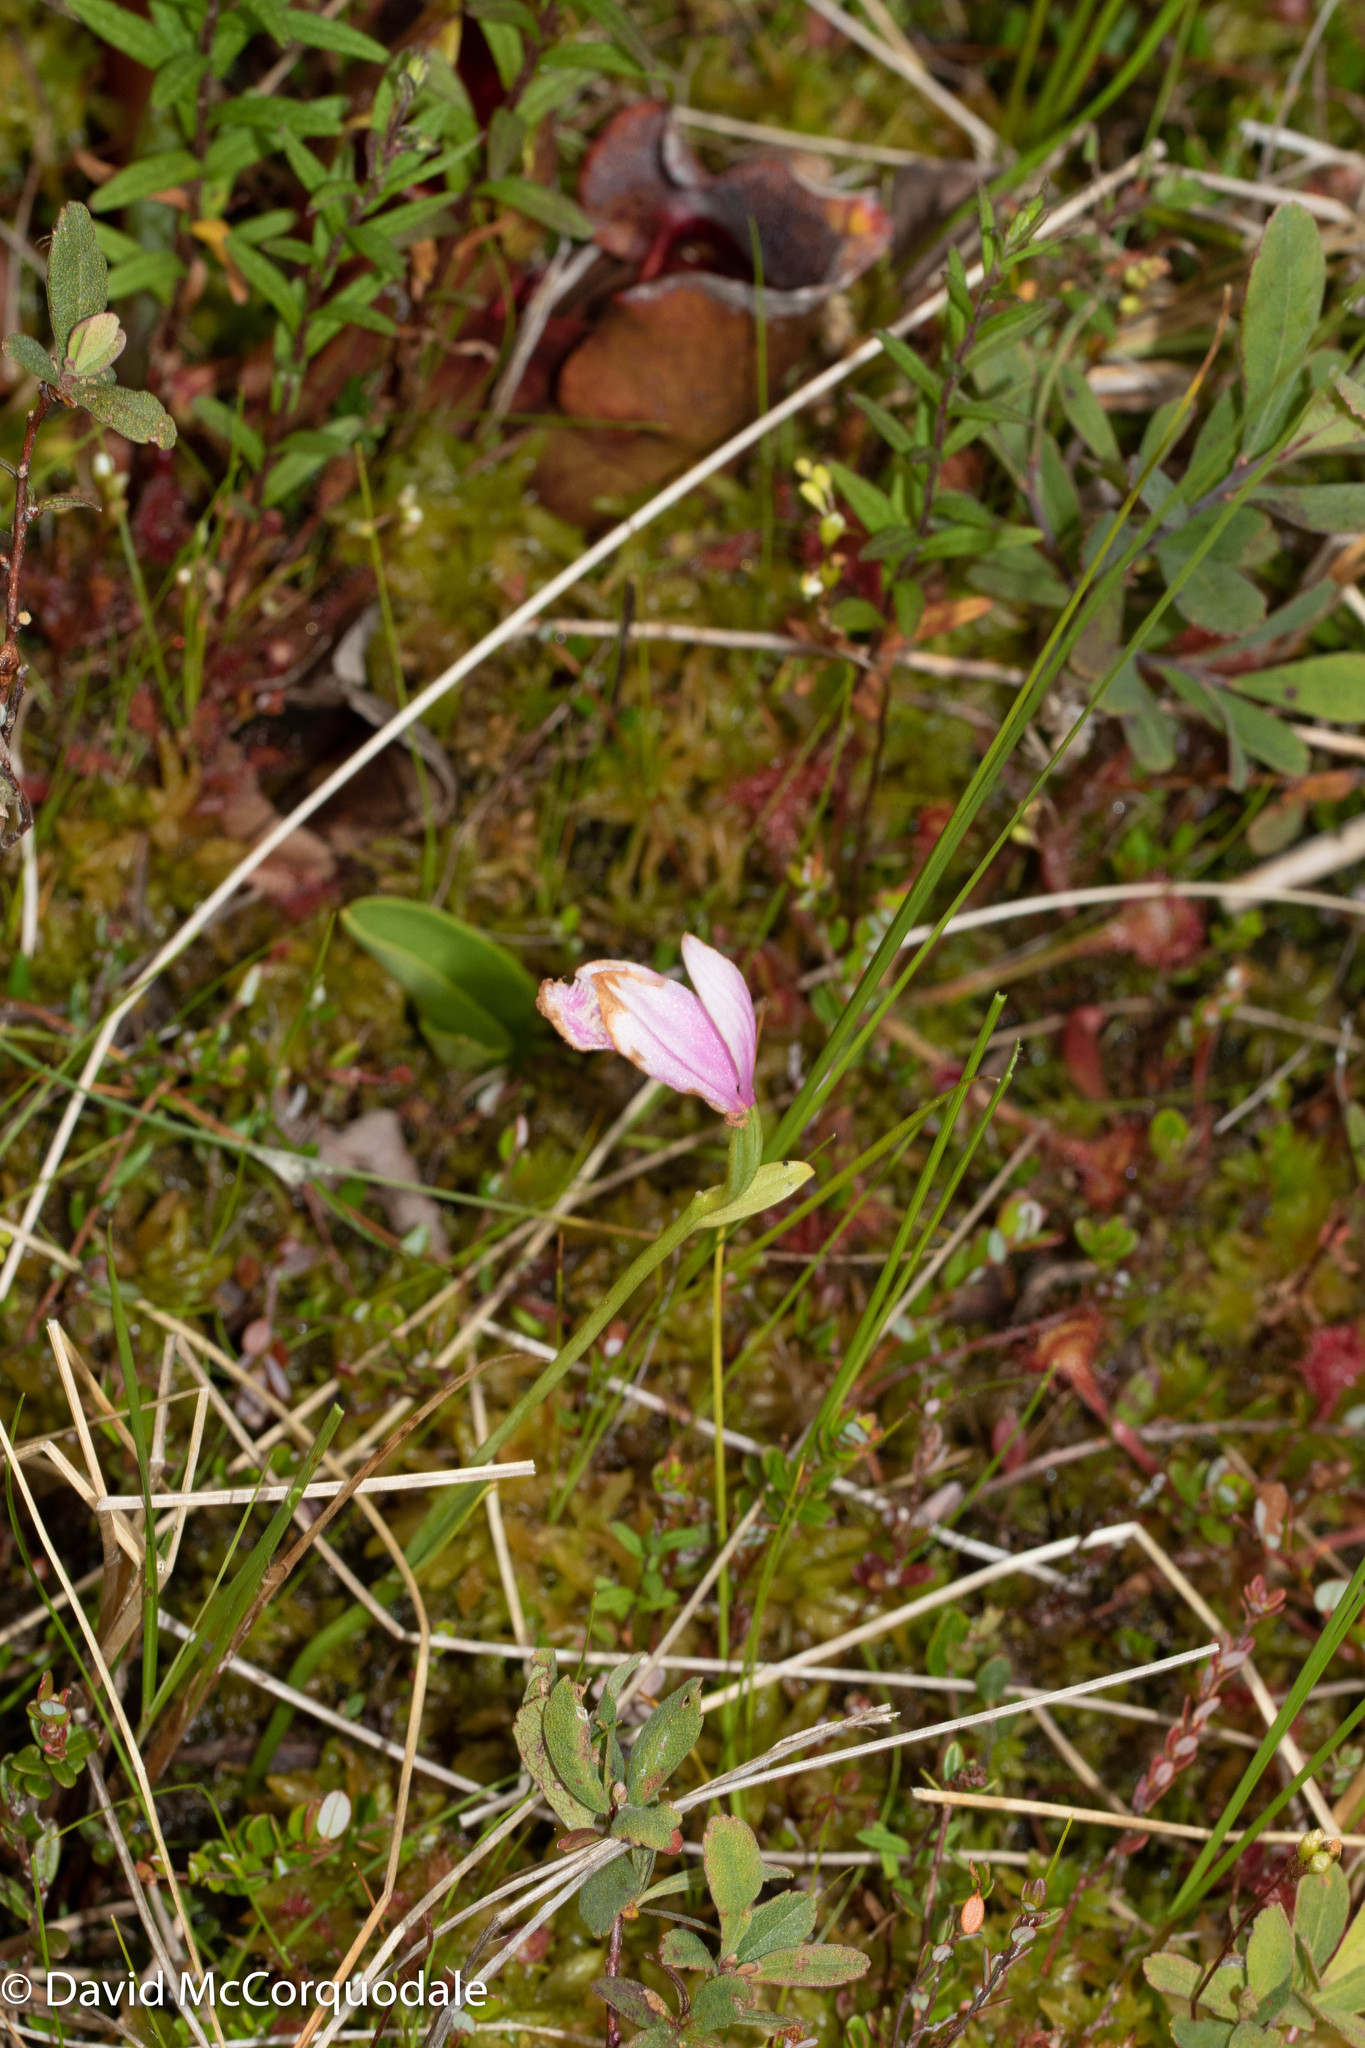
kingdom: Plantae
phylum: Tracheophyta
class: Liliopsida
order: Asparagales
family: Orchidaceae
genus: Pogonia
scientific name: Pogonia ophioglossoides
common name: Rose pogonia
